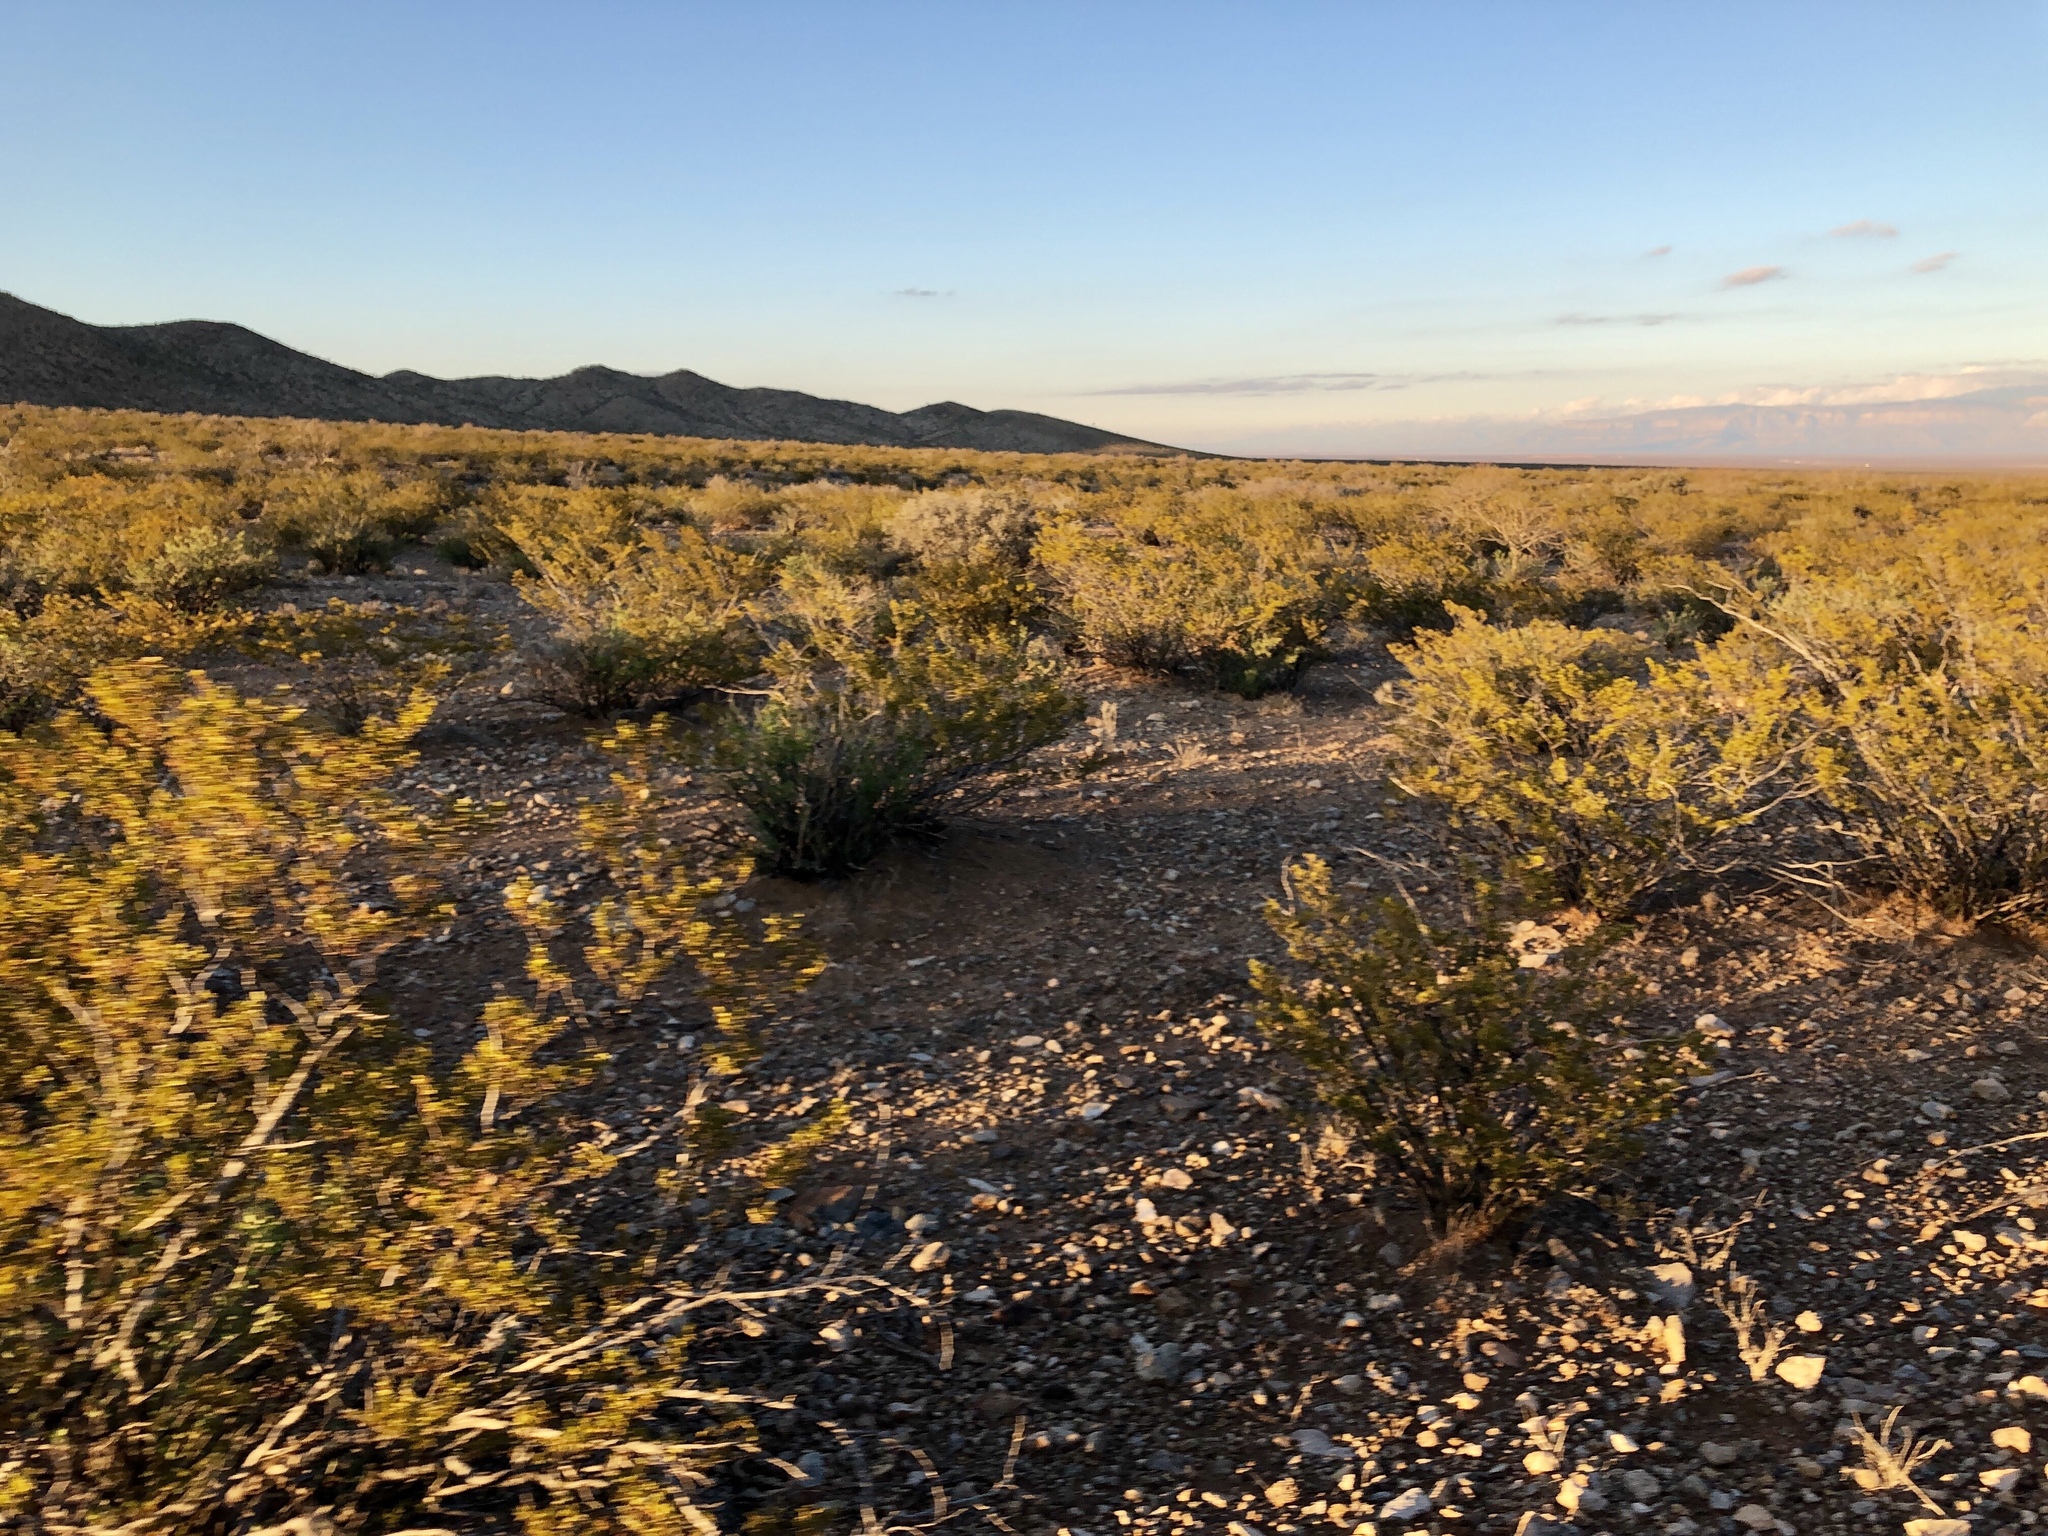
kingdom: Plantae
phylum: Tracheophyta
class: Magnoliopsida
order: Zygophyllales
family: Zygophyllaceae
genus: Larrea
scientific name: Larrea tridentata
